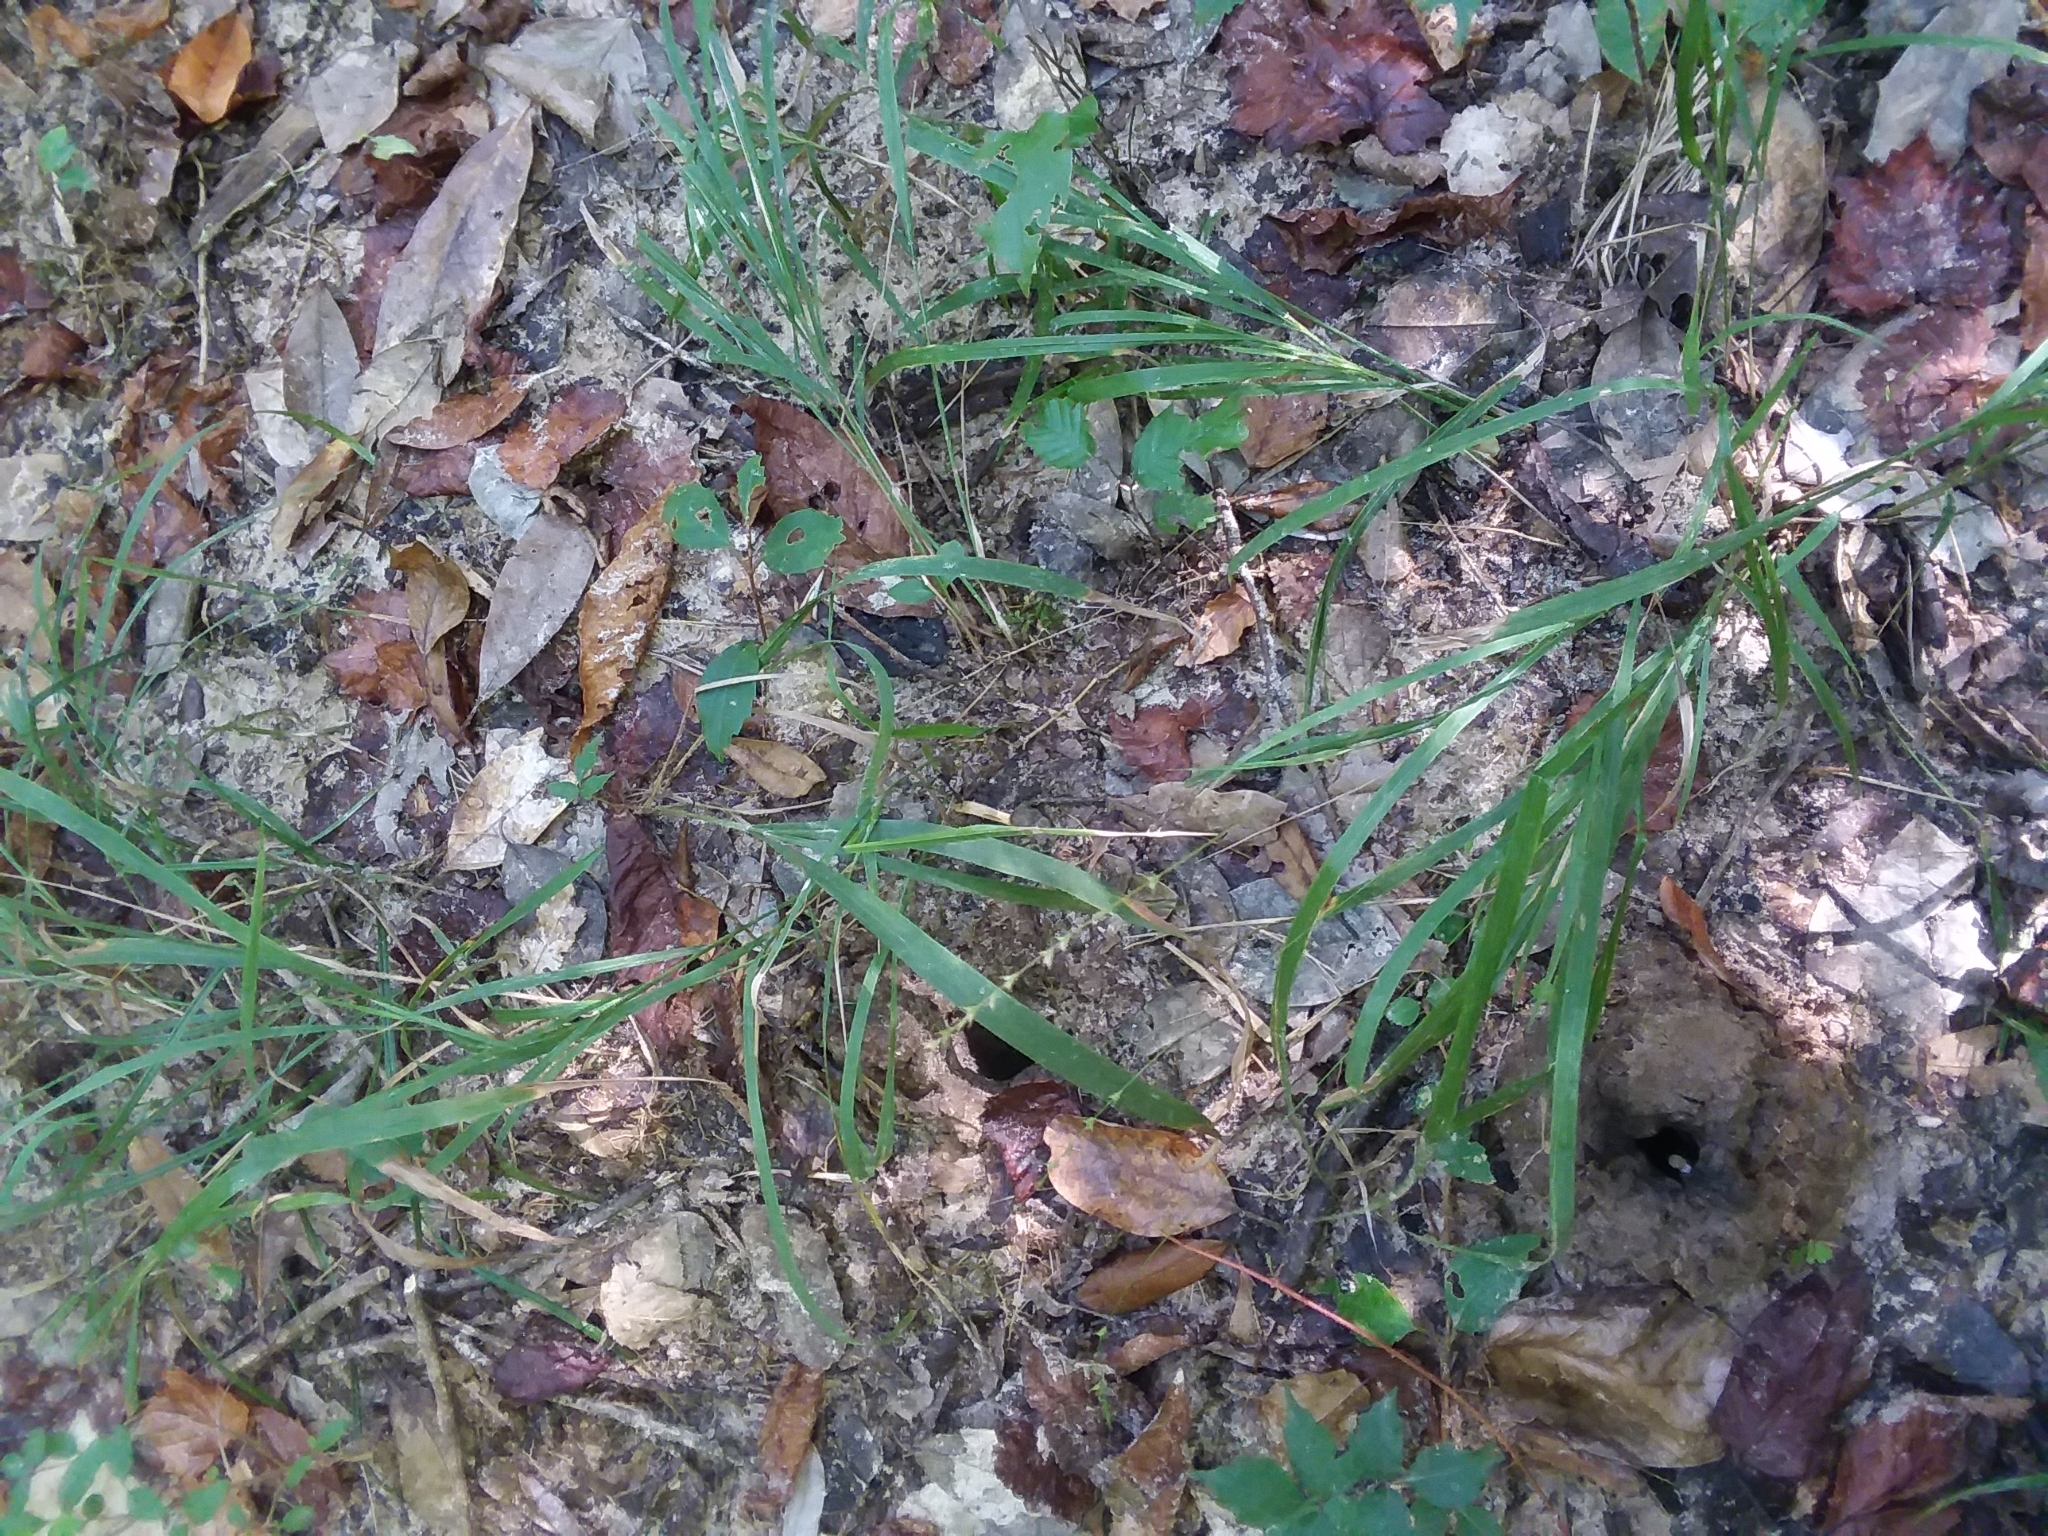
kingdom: Plantae
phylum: Tracheophyta
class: Liliopsida
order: Poales
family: Poaceae
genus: Chasmanthium
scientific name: Chasmanthium laxum
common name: Slender chasmanthium
